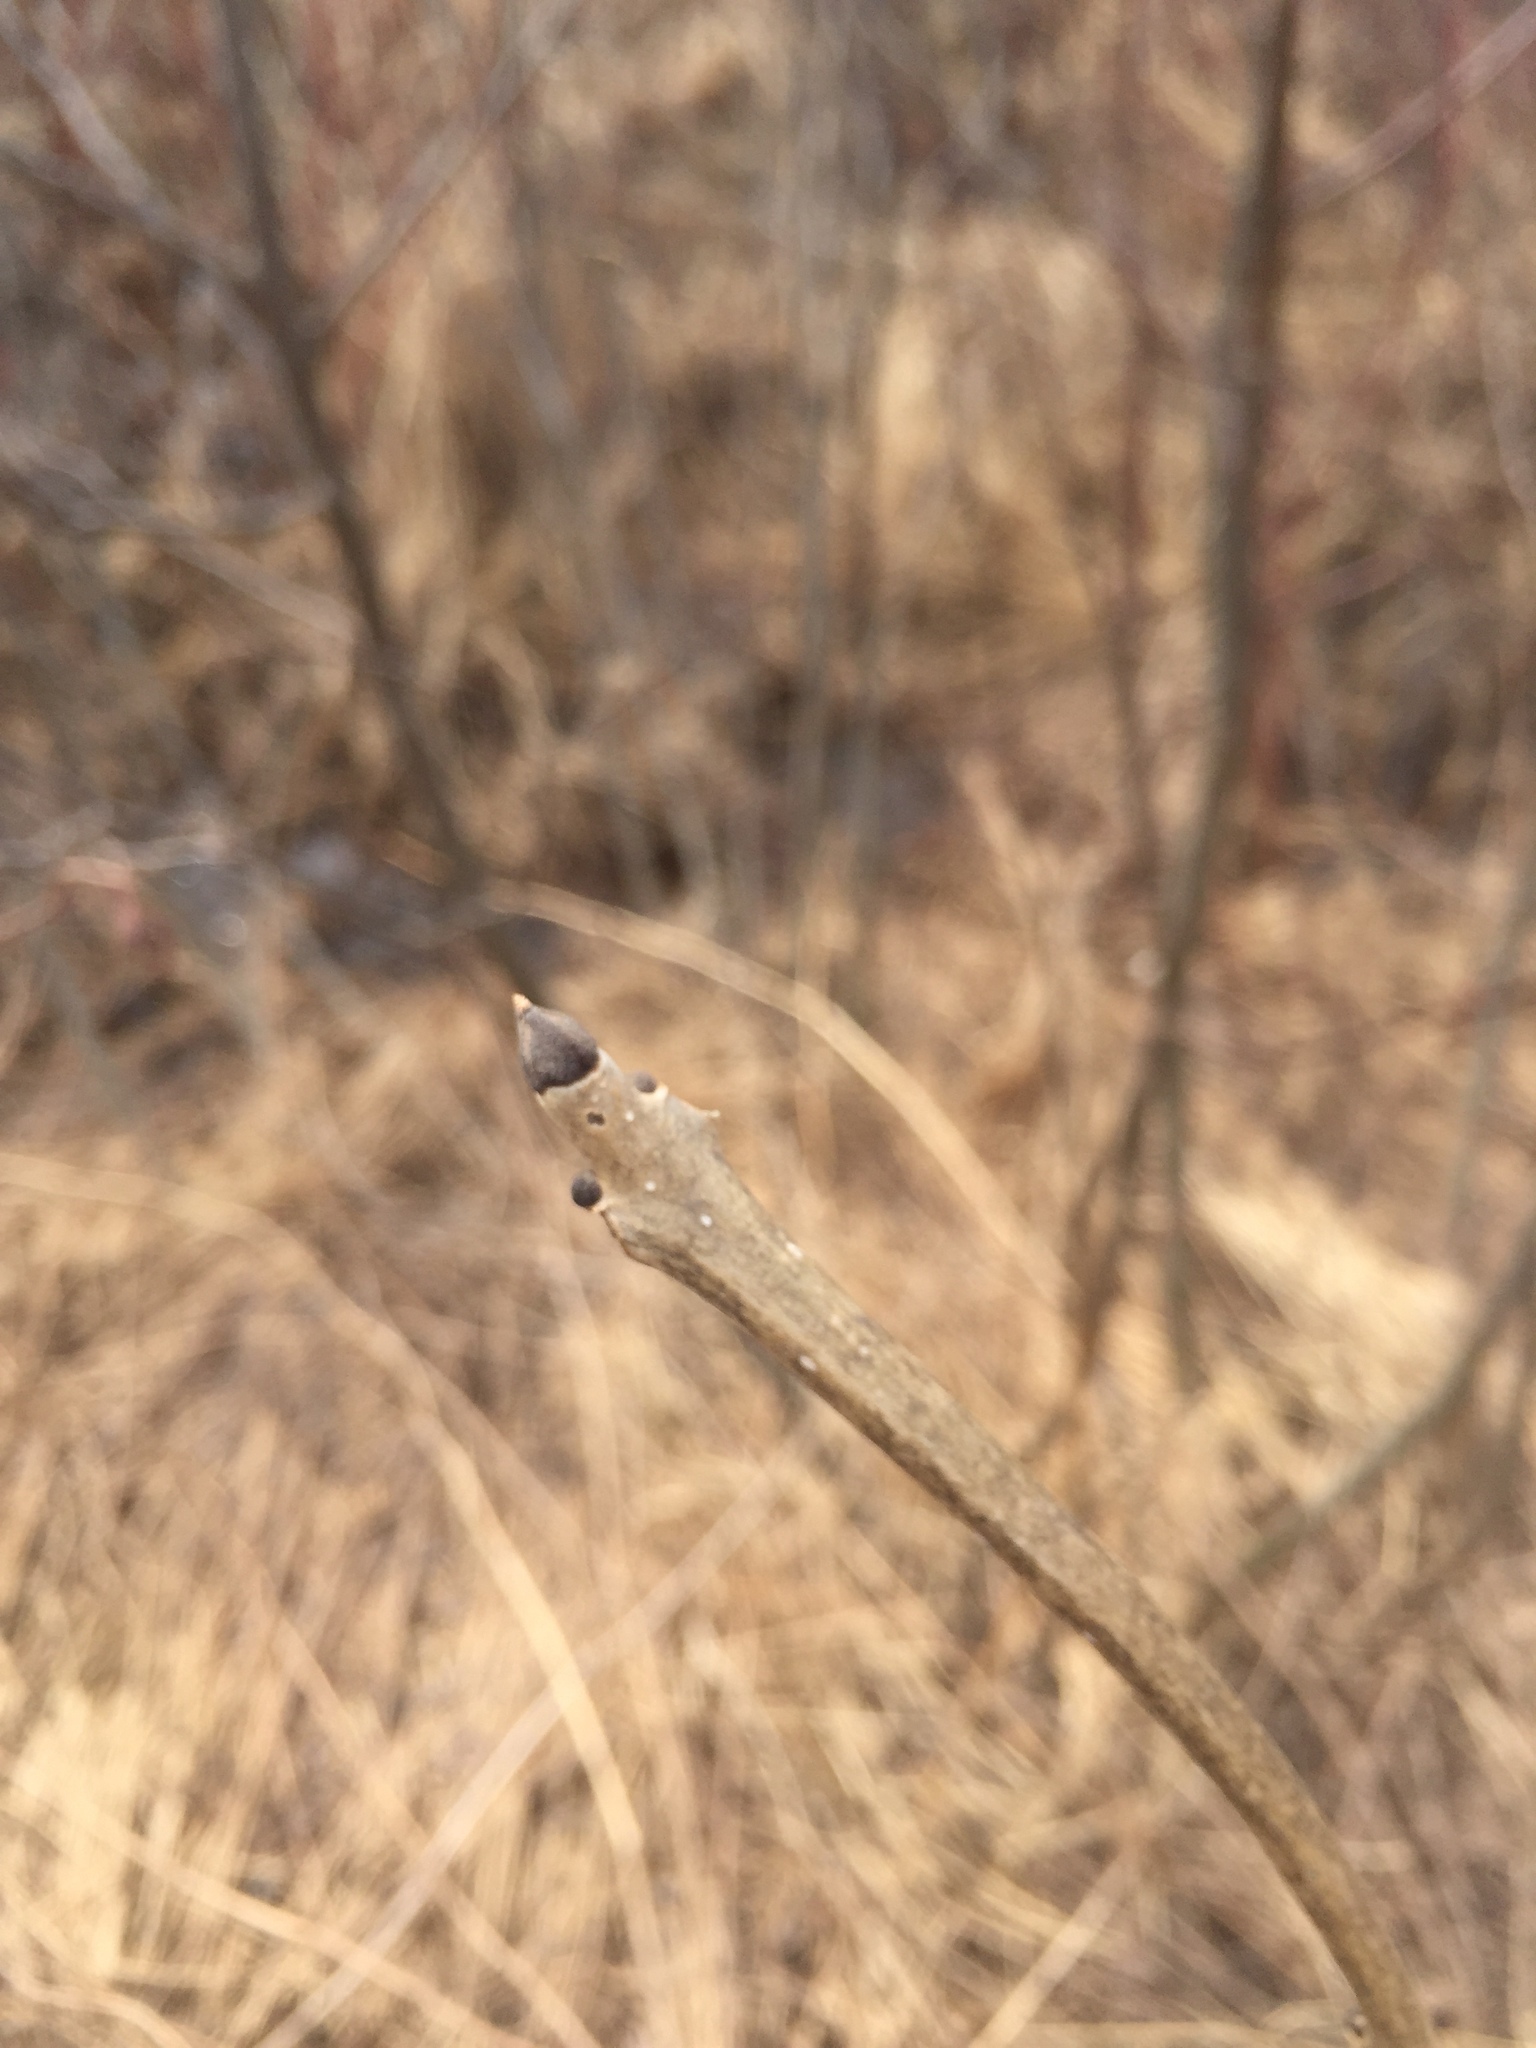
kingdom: Plantae
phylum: Tracheophyta
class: Magnoliopsida
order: Lamiales
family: Oleaceae
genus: Fraxinus
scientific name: Fraxinus nigra
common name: Black ash
